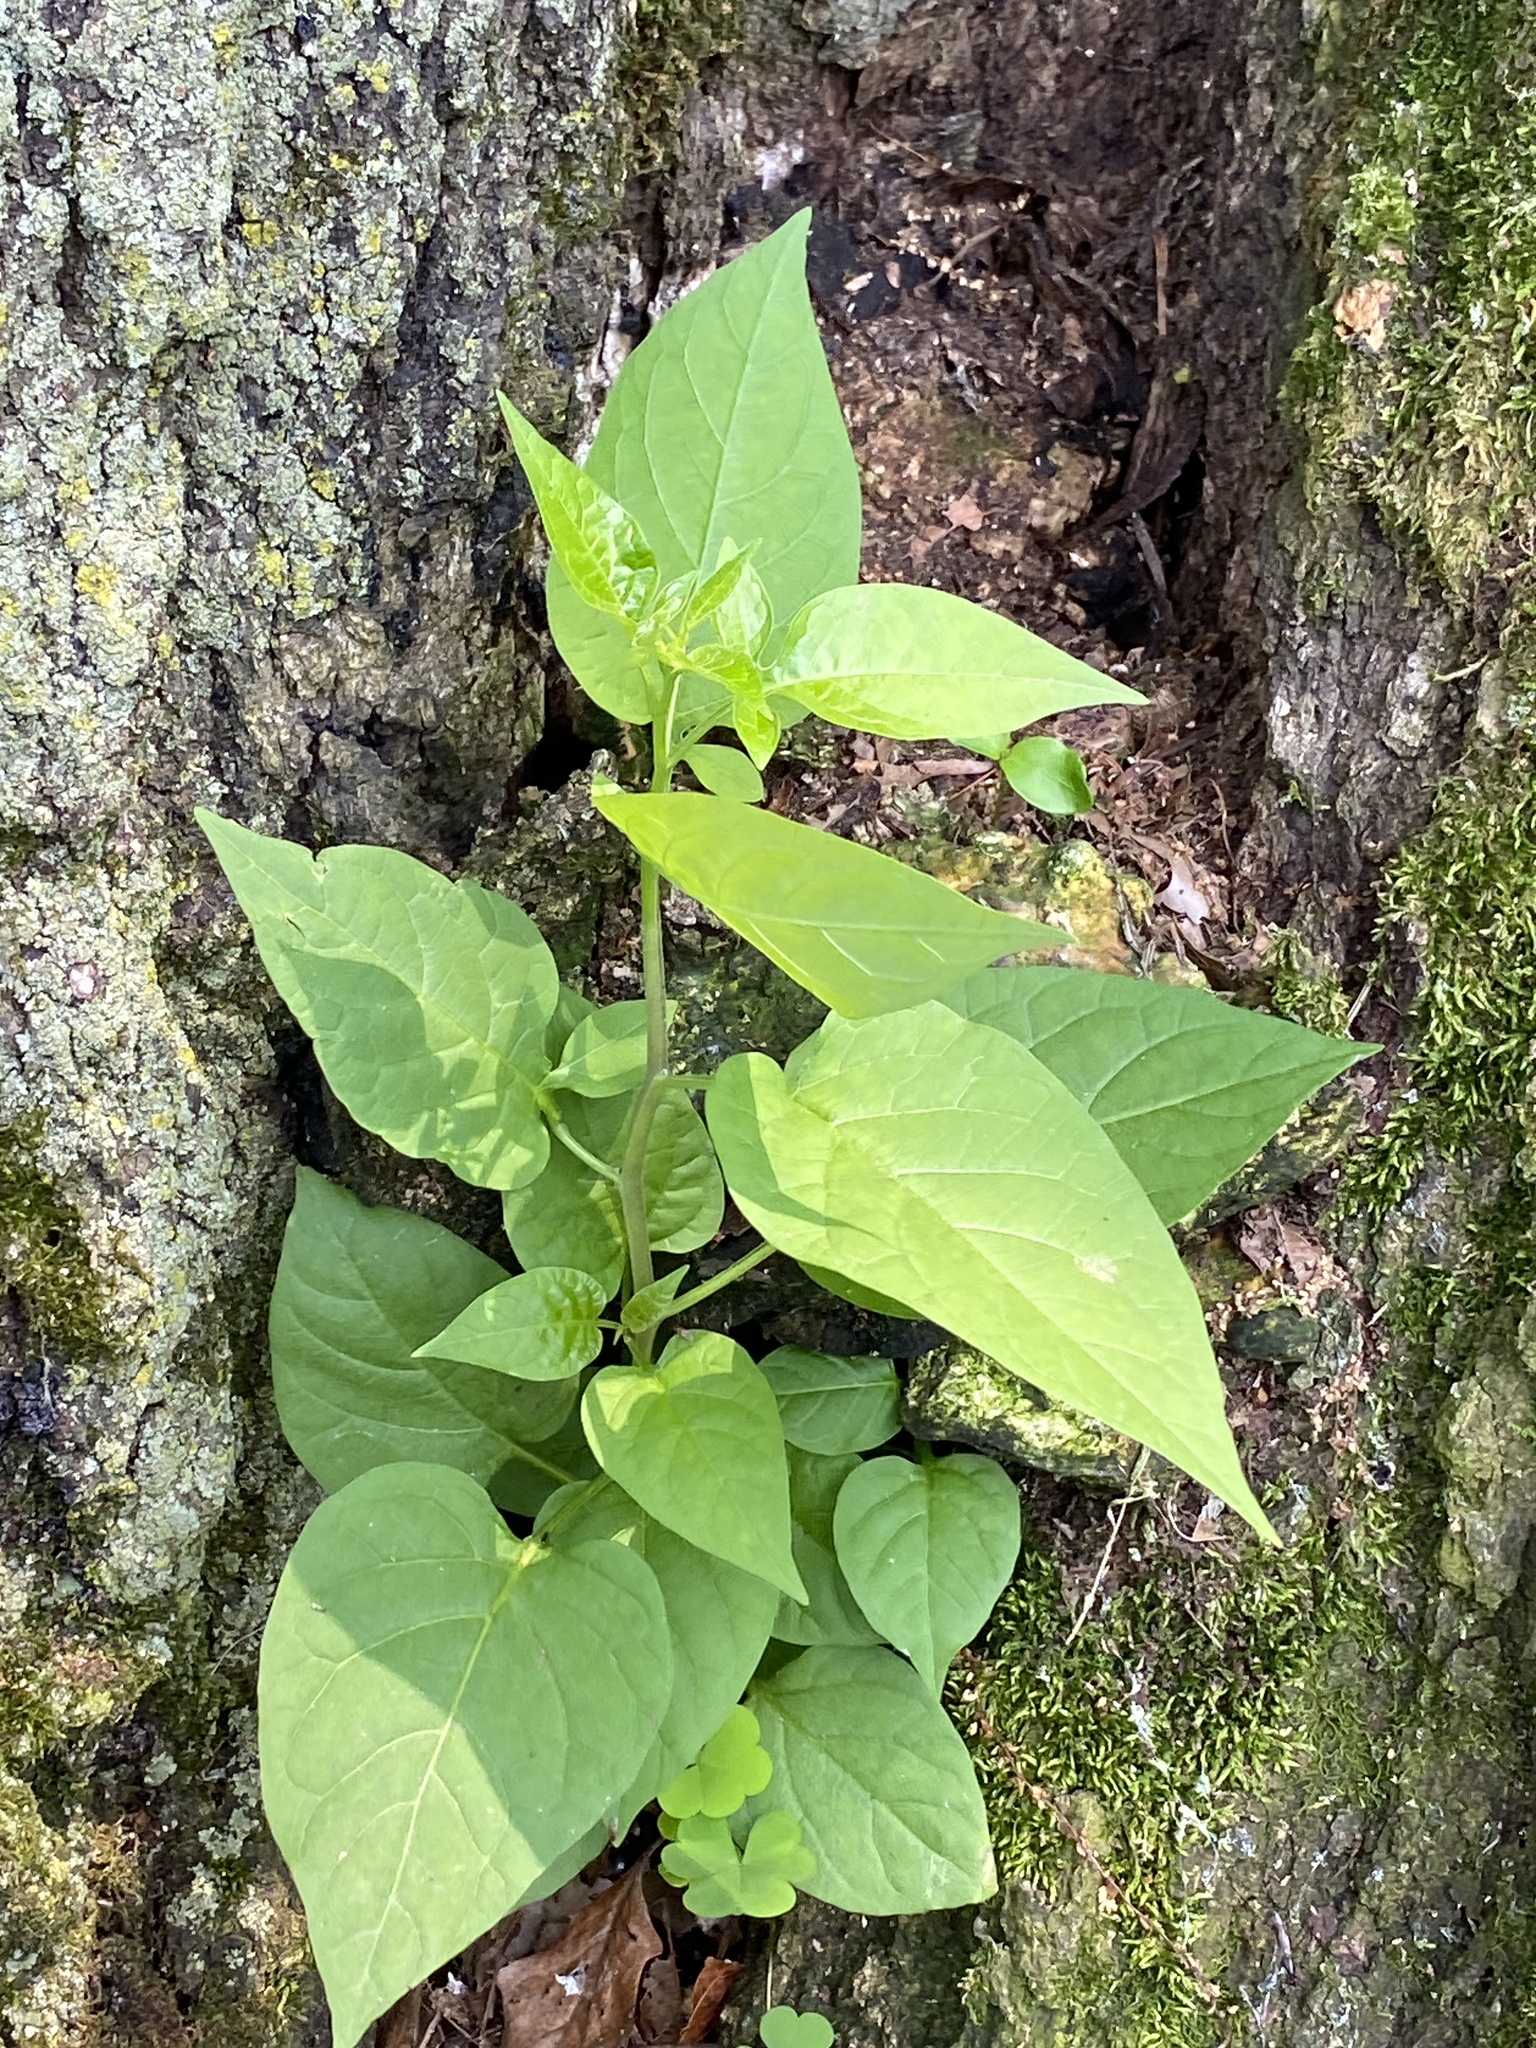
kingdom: Plantae
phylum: Tracheophyta
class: Magnoliopsida
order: Solanales
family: Solanaceae
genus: Solanum
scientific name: Solanum dulcamara
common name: Climbing nightshade
